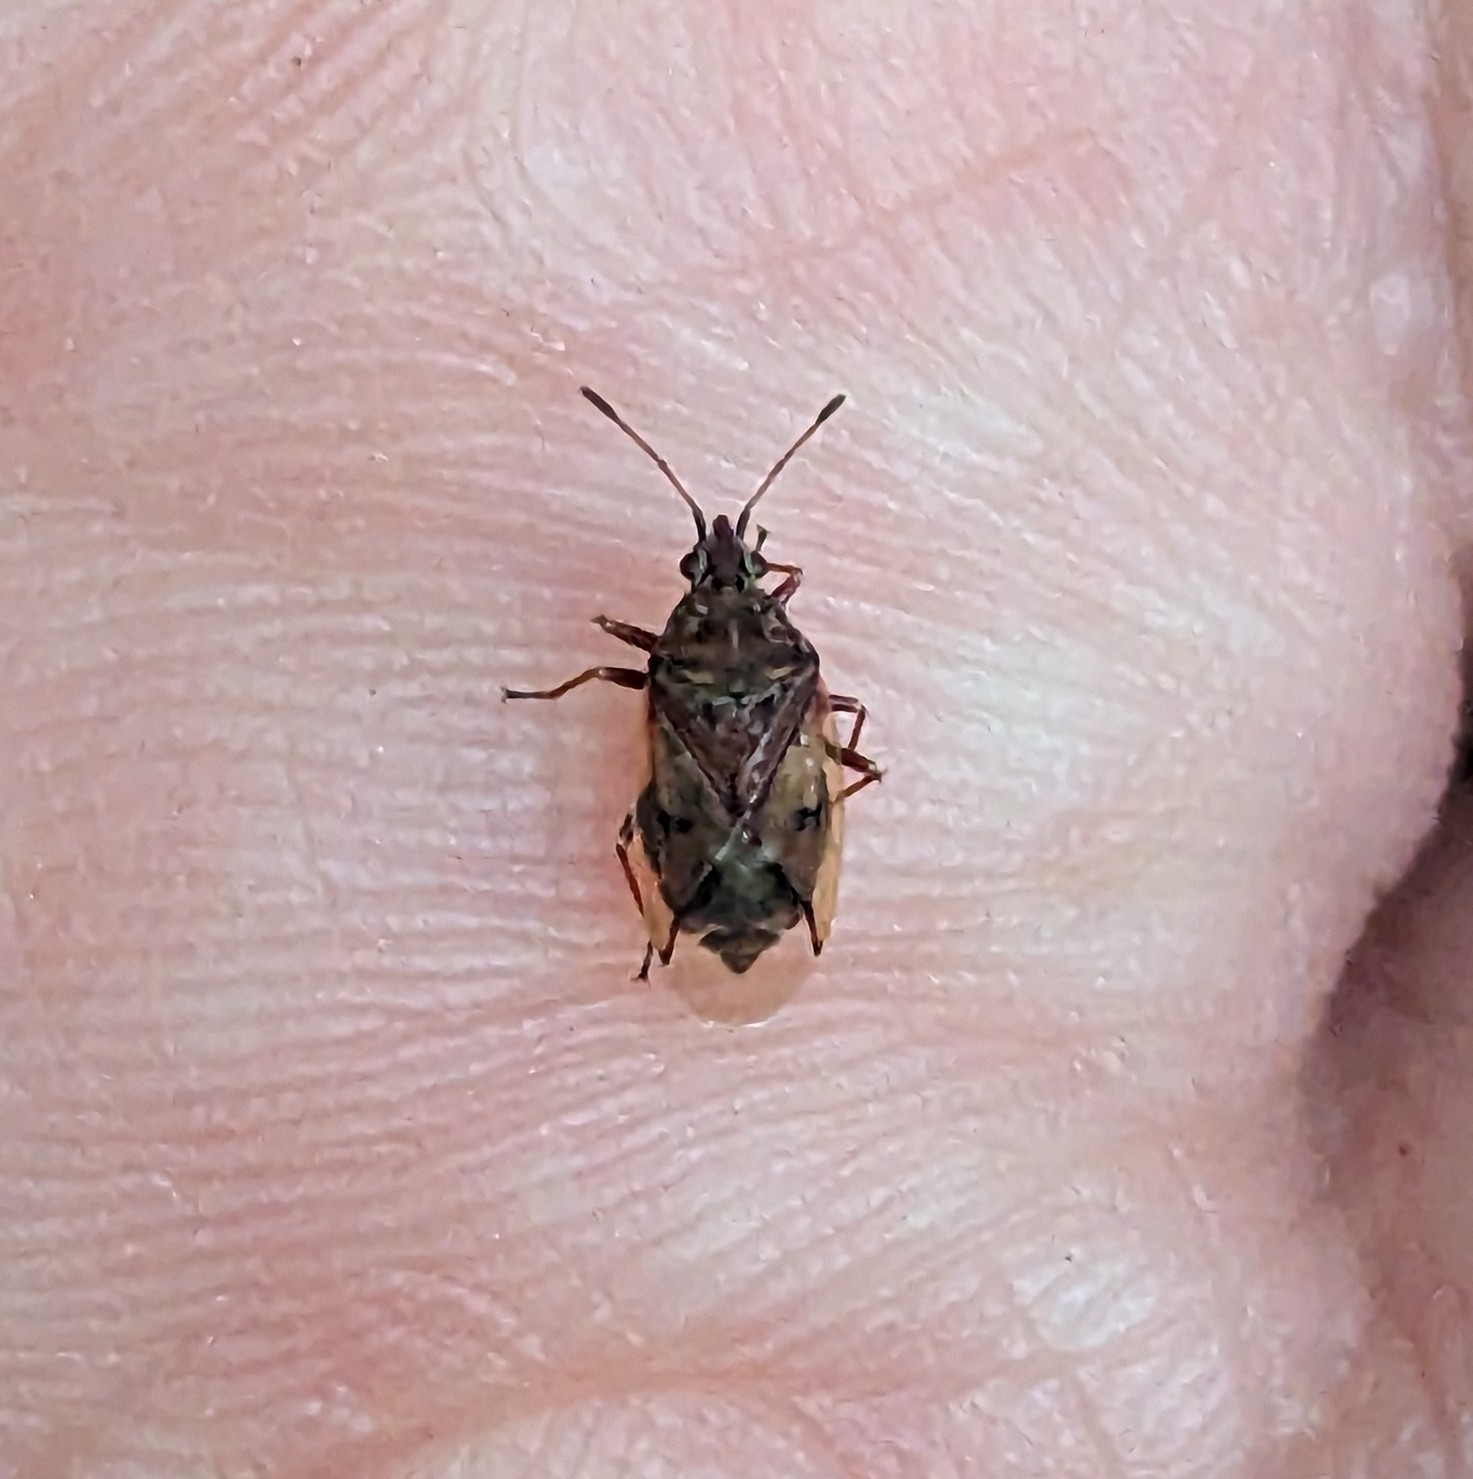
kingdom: Animalia
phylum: Arthropoda
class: Insecta
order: Hemiptera
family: Lygaeidae
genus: Kleidocerys
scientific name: Kleidocerys resedae
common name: Birch catkin bug
